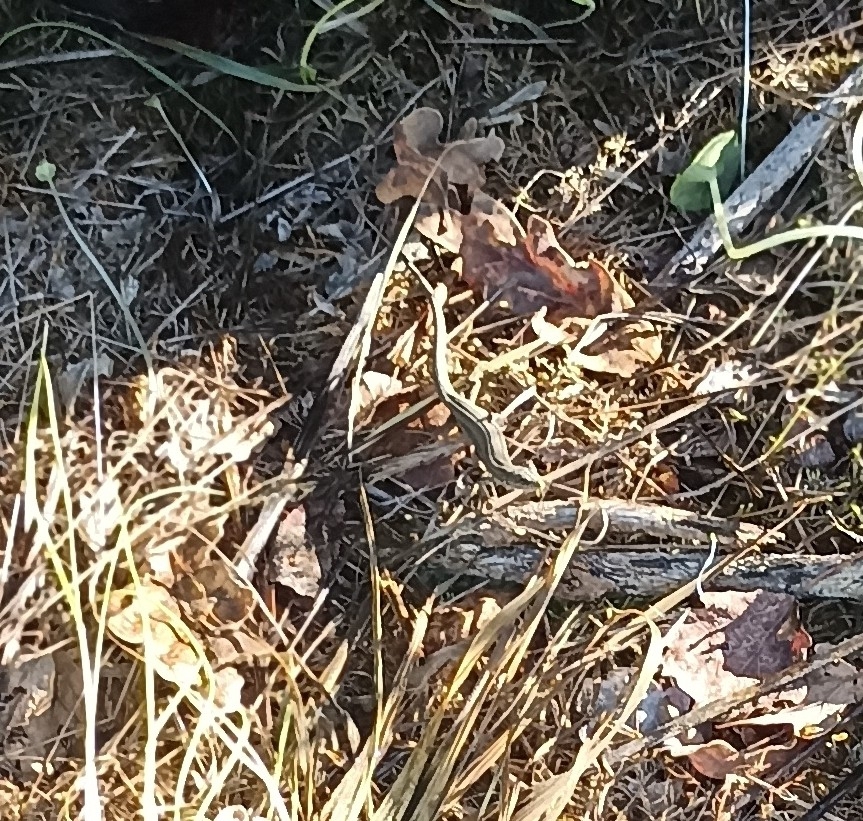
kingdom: Animalia
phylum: Chordata
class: Squamata
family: Lacertidae
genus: Podarcis
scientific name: Podarcis muralis
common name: Common wall lizard
